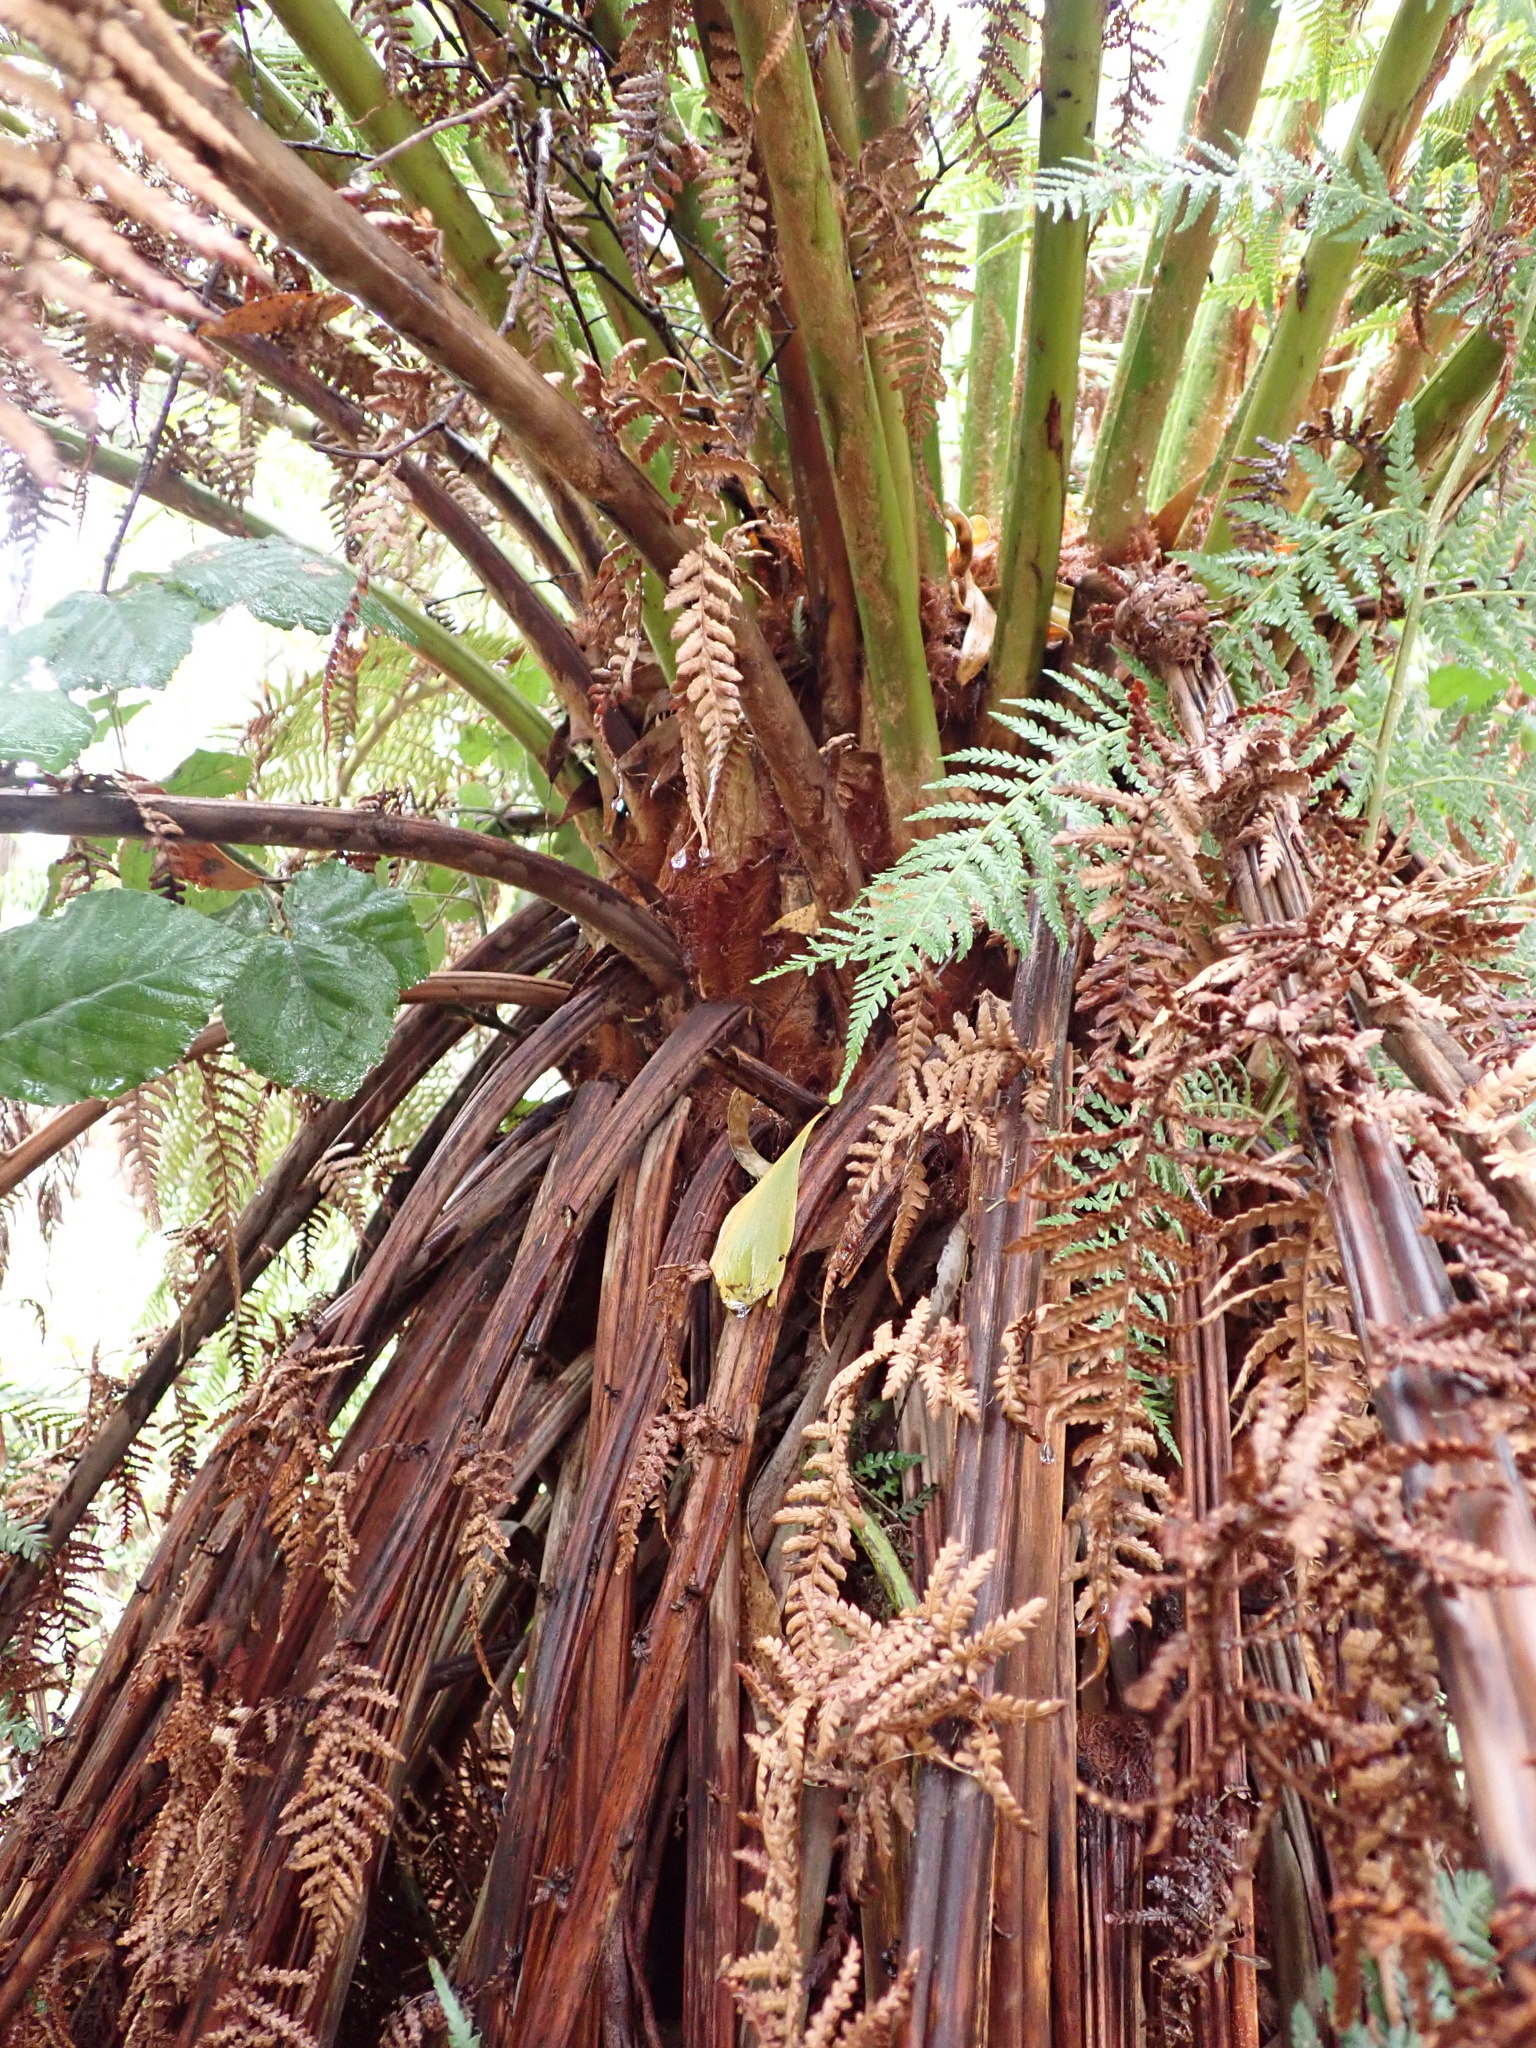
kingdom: Plantae
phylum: Tracheophyta
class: Polypodiopsida
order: Cyatheales
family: Dicksoniaceae
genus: Dicksonia
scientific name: Dicksonia antarctica
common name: Australian treefern
